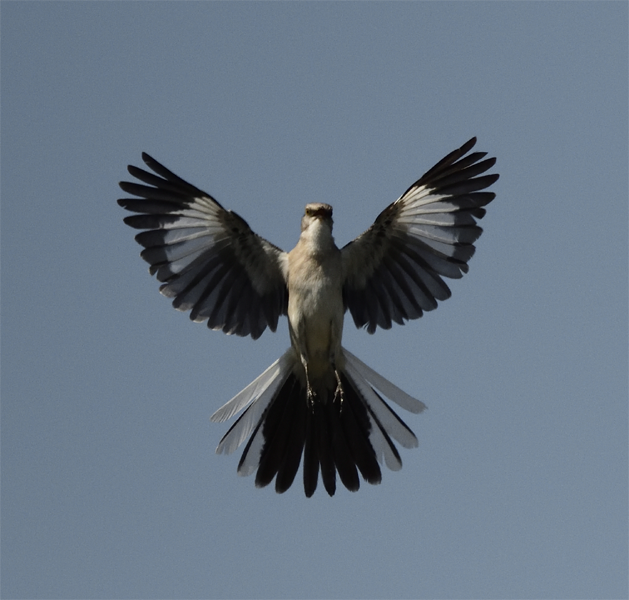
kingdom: Animalia
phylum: Chordata
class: Aves
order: Passeriformes
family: Mimidae
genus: Mimus
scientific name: Mimus polyglottos
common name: Northern mockingbird
